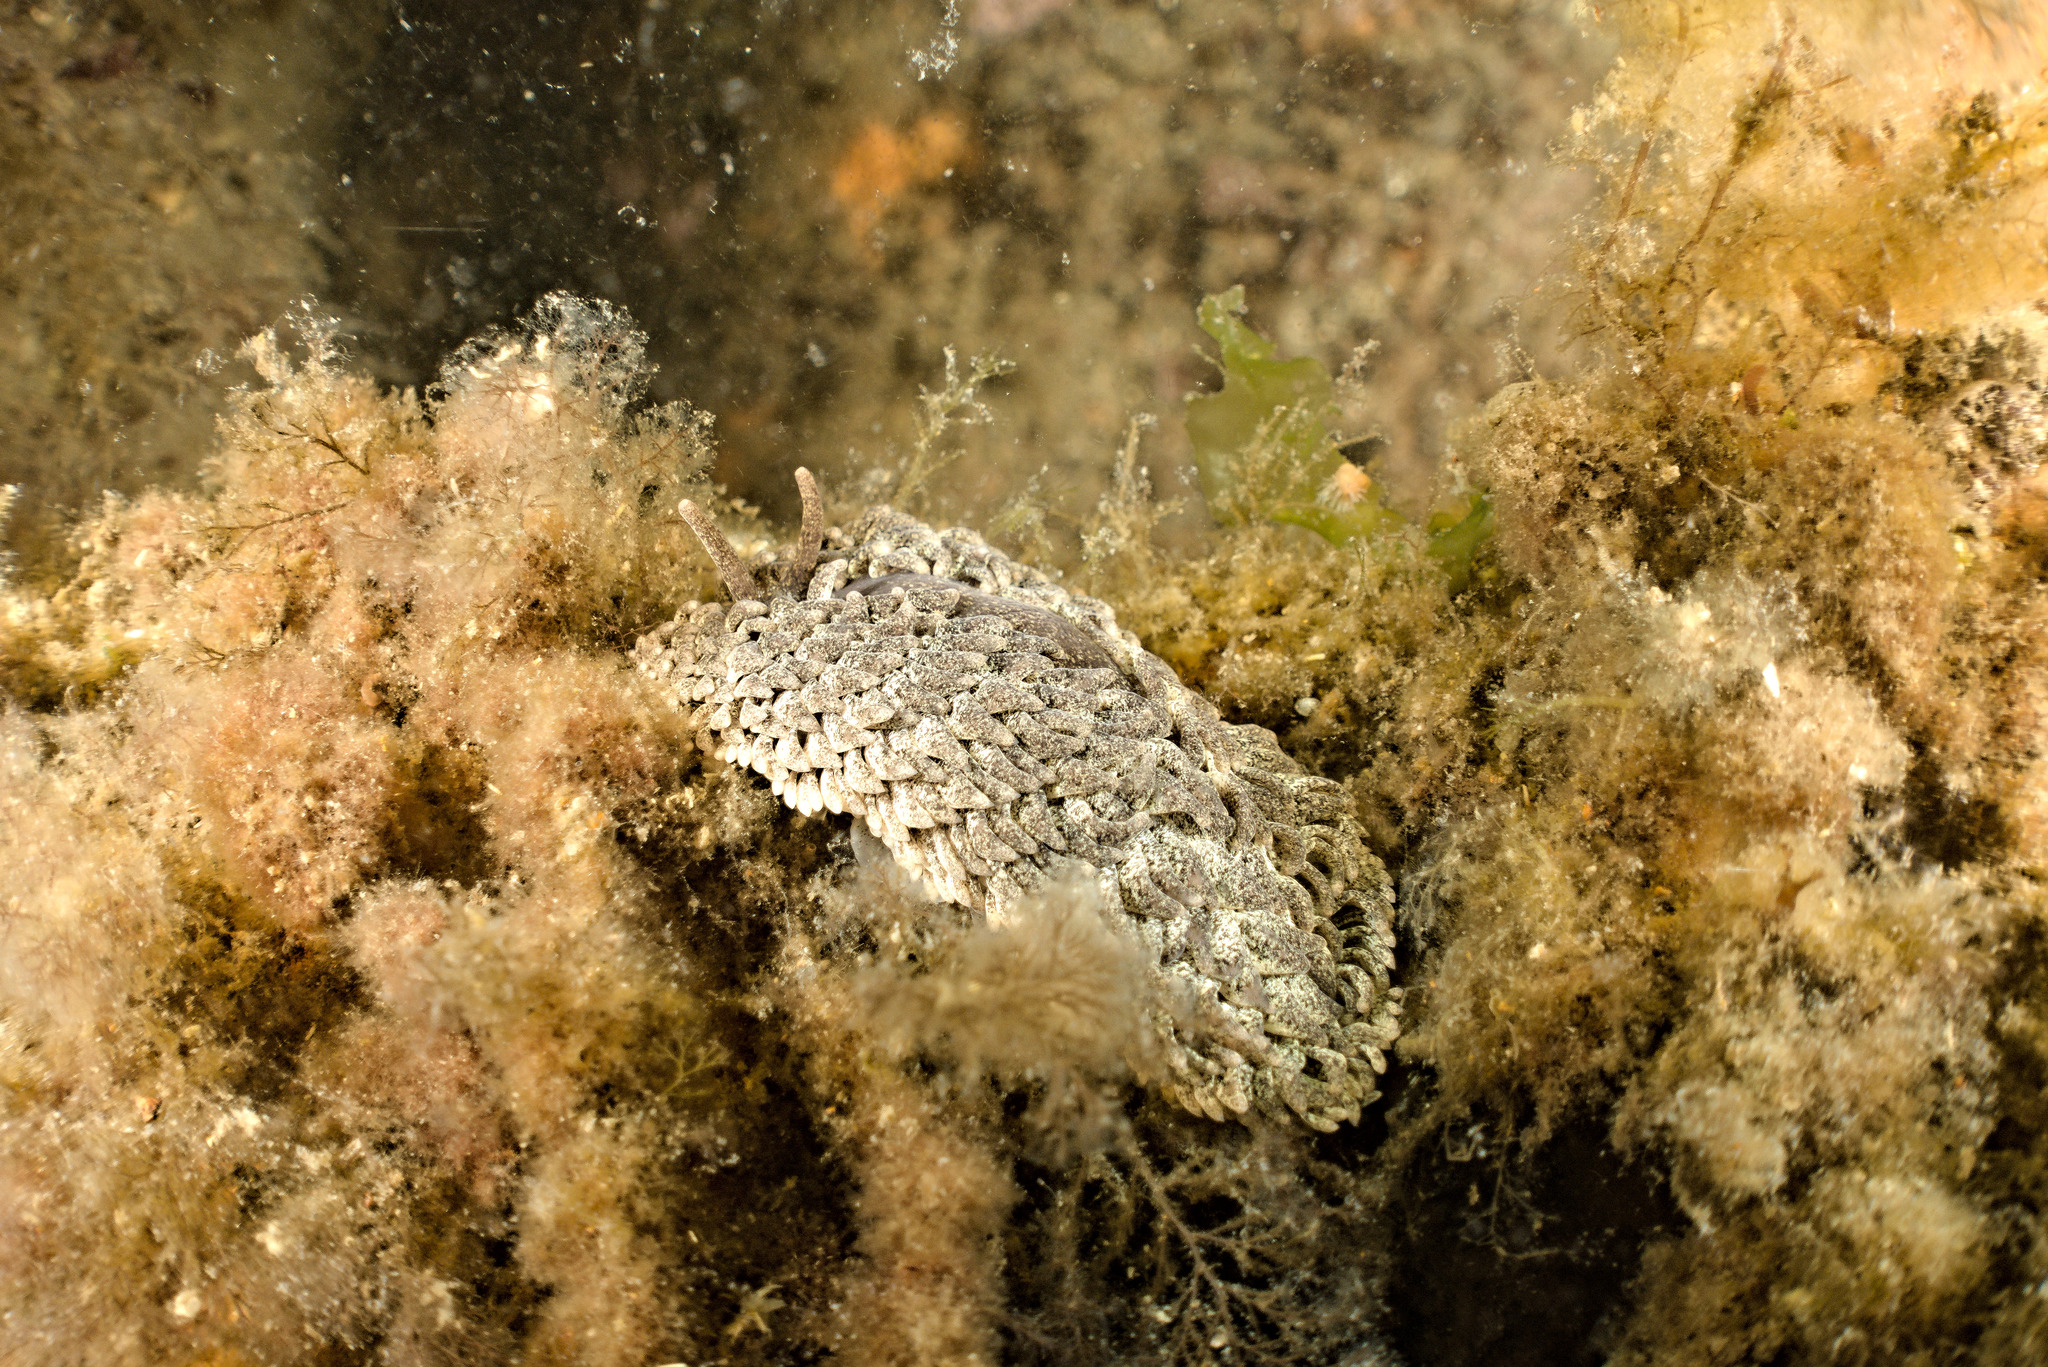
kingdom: Animalia
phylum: Mollusca
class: Gastropoda
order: Nudibranchia
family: Aeolidiidae
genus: Aeolidia
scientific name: Aeolidia papillosa
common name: Common grey sea slug
